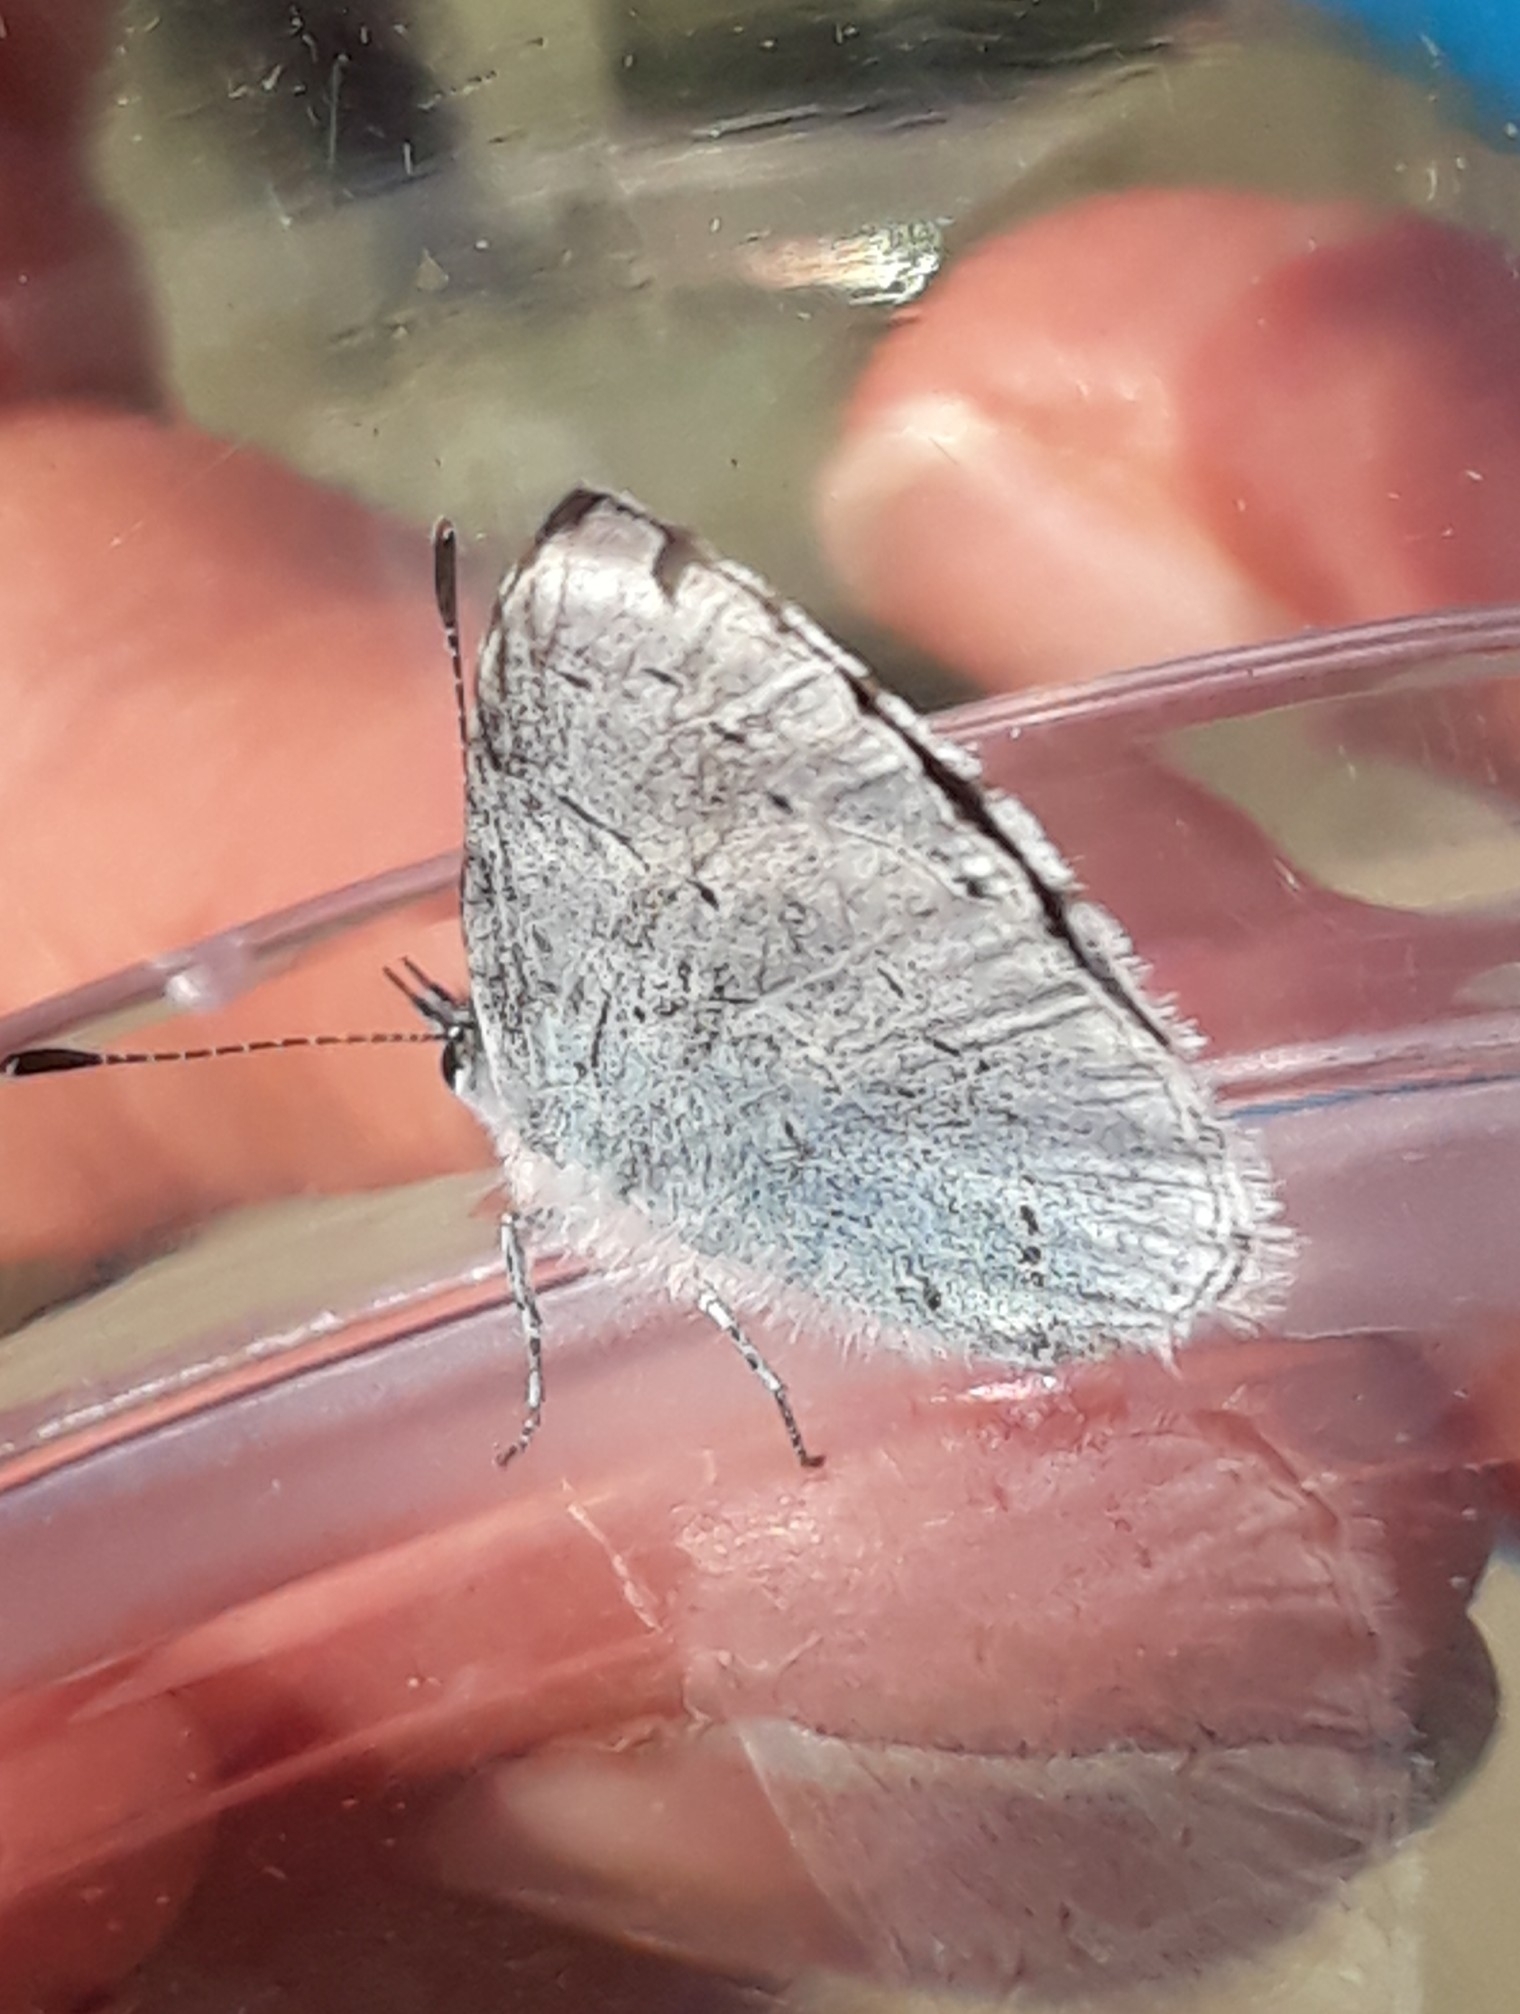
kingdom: Animalia
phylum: Arthropoda
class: Insecta
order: Lepidoptera
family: Lycaenidae
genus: Celastrina
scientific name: Celastrina argiolus
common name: Holly blue
